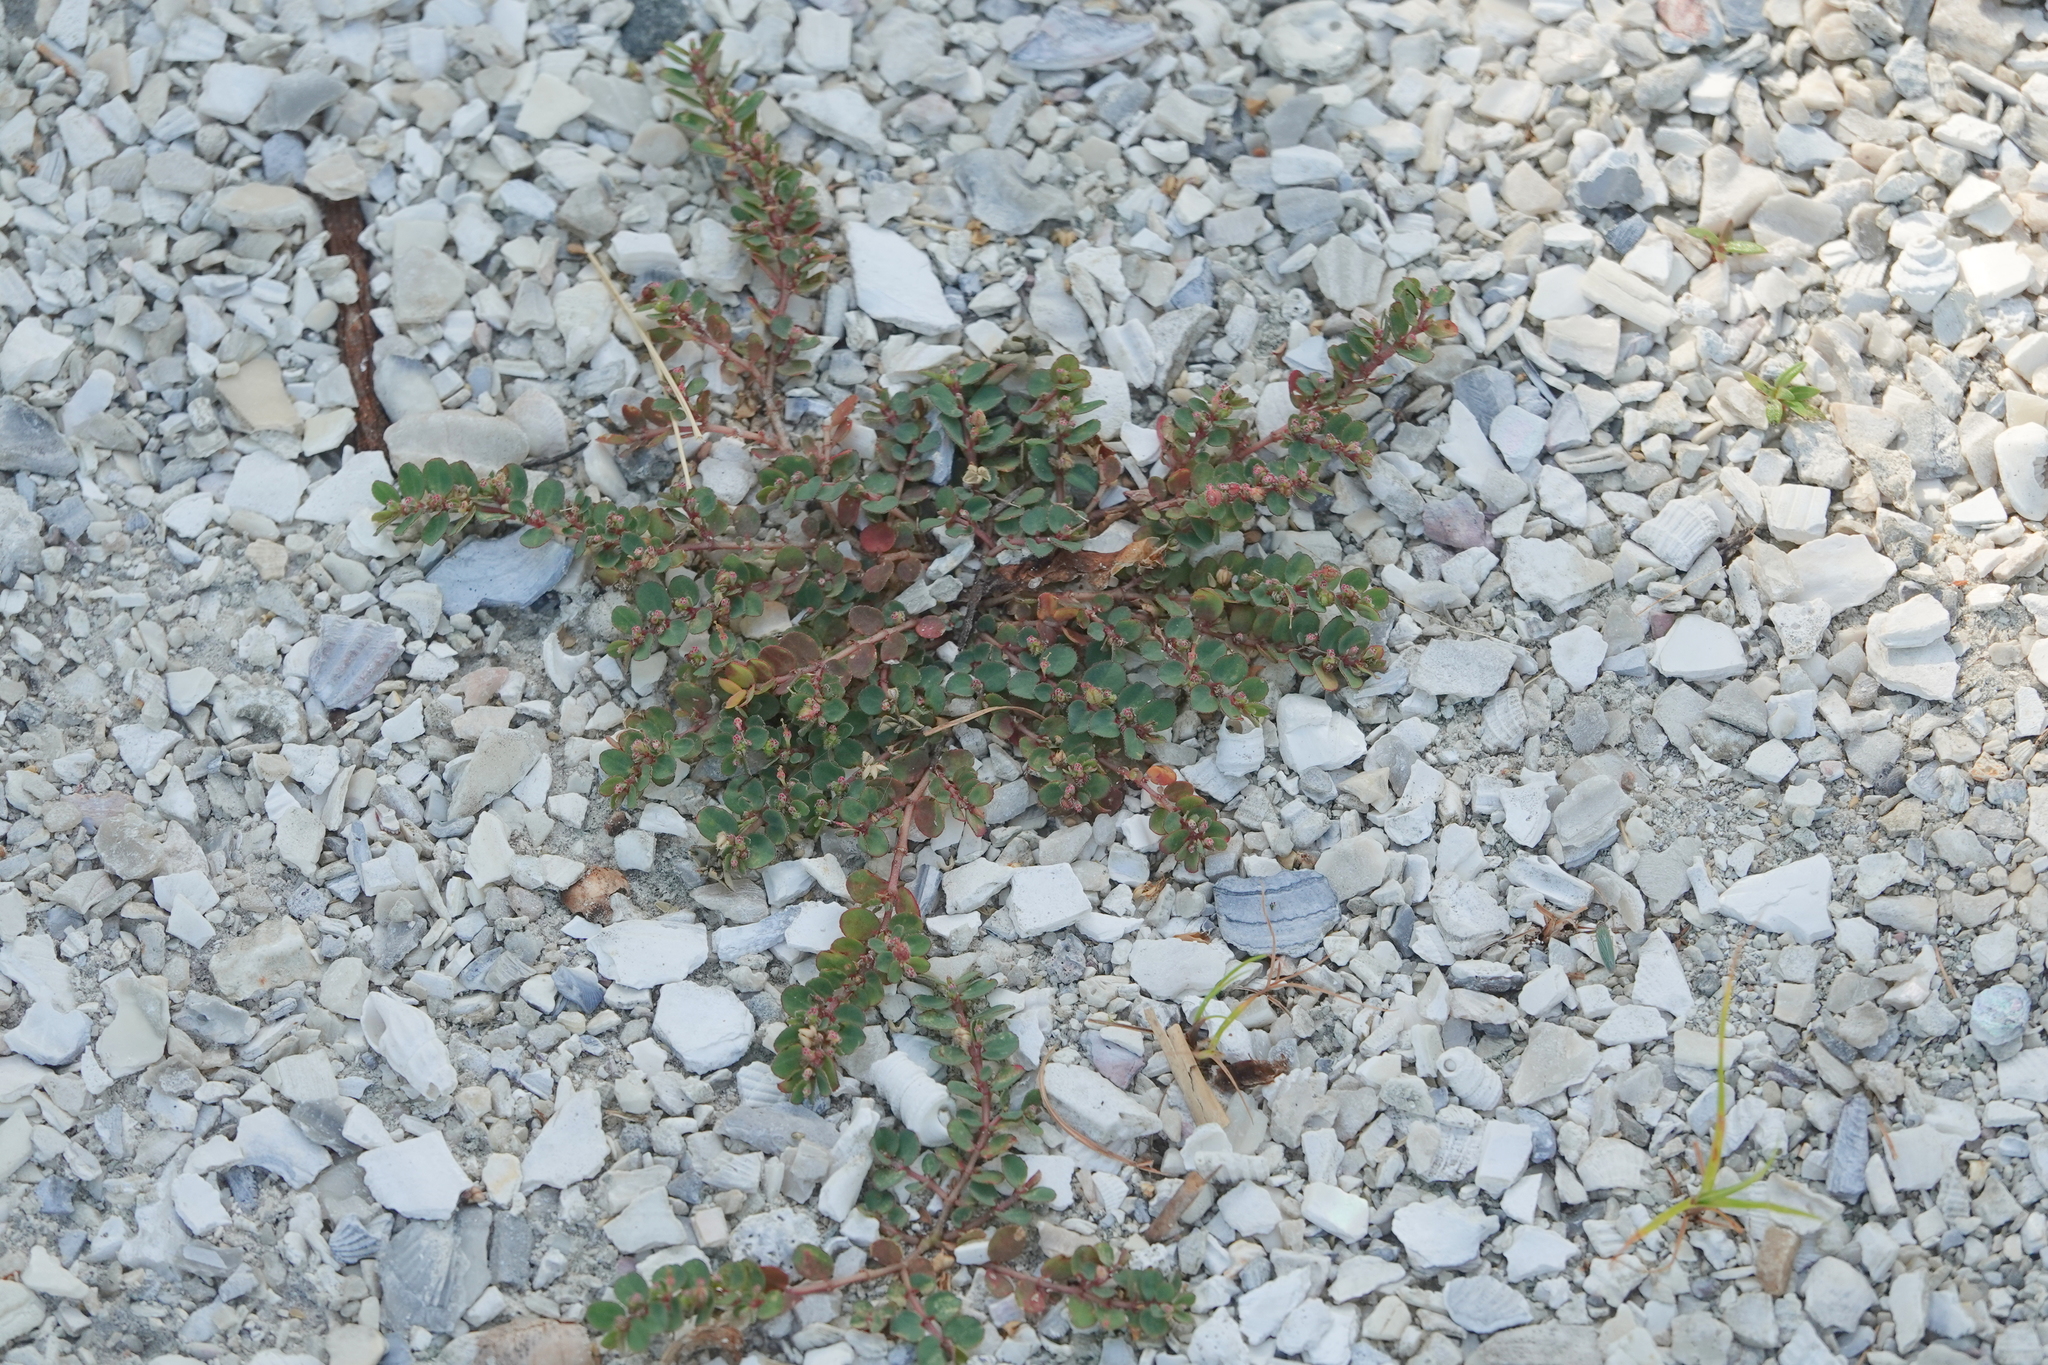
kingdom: Plantae
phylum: Tracheophyta
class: Magnoliopsida
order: Malpighiales
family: Euphorbiaceae
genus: Euphorbia
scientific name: Euphorbia prostrata
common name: Prostrate sandmat
